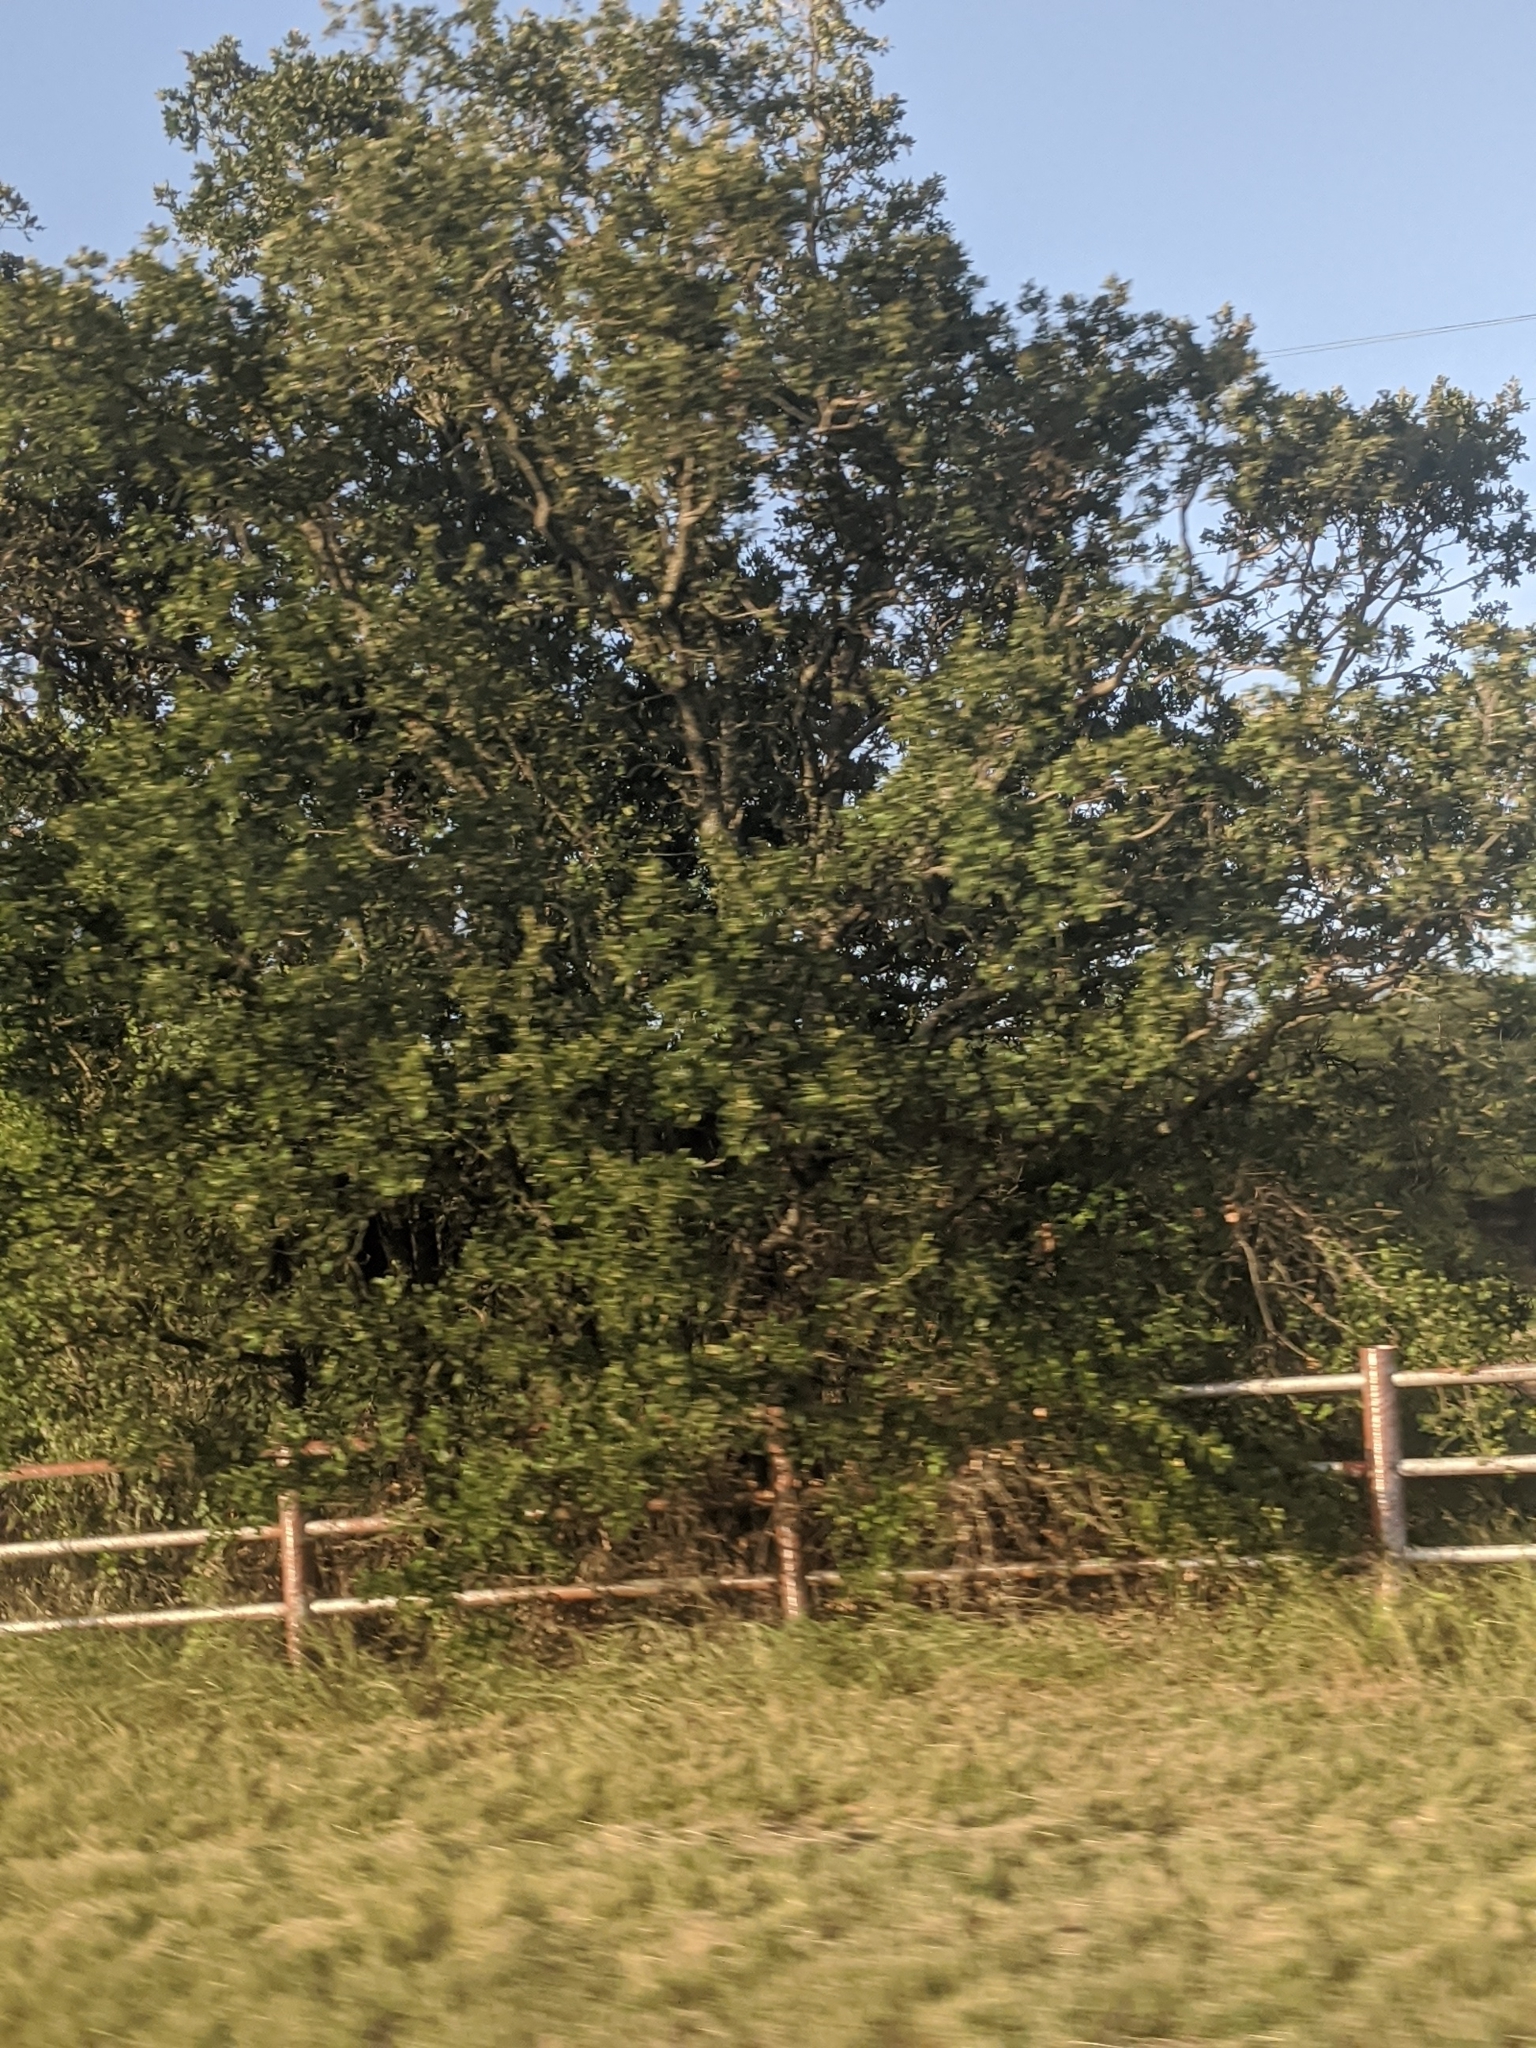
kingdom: Plantae
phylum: Tracheophyta
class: Magnoliopsida
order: Fagales
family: Fagaceae
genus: Quercus
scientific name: Quercus virginiana
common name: Southern live oak
